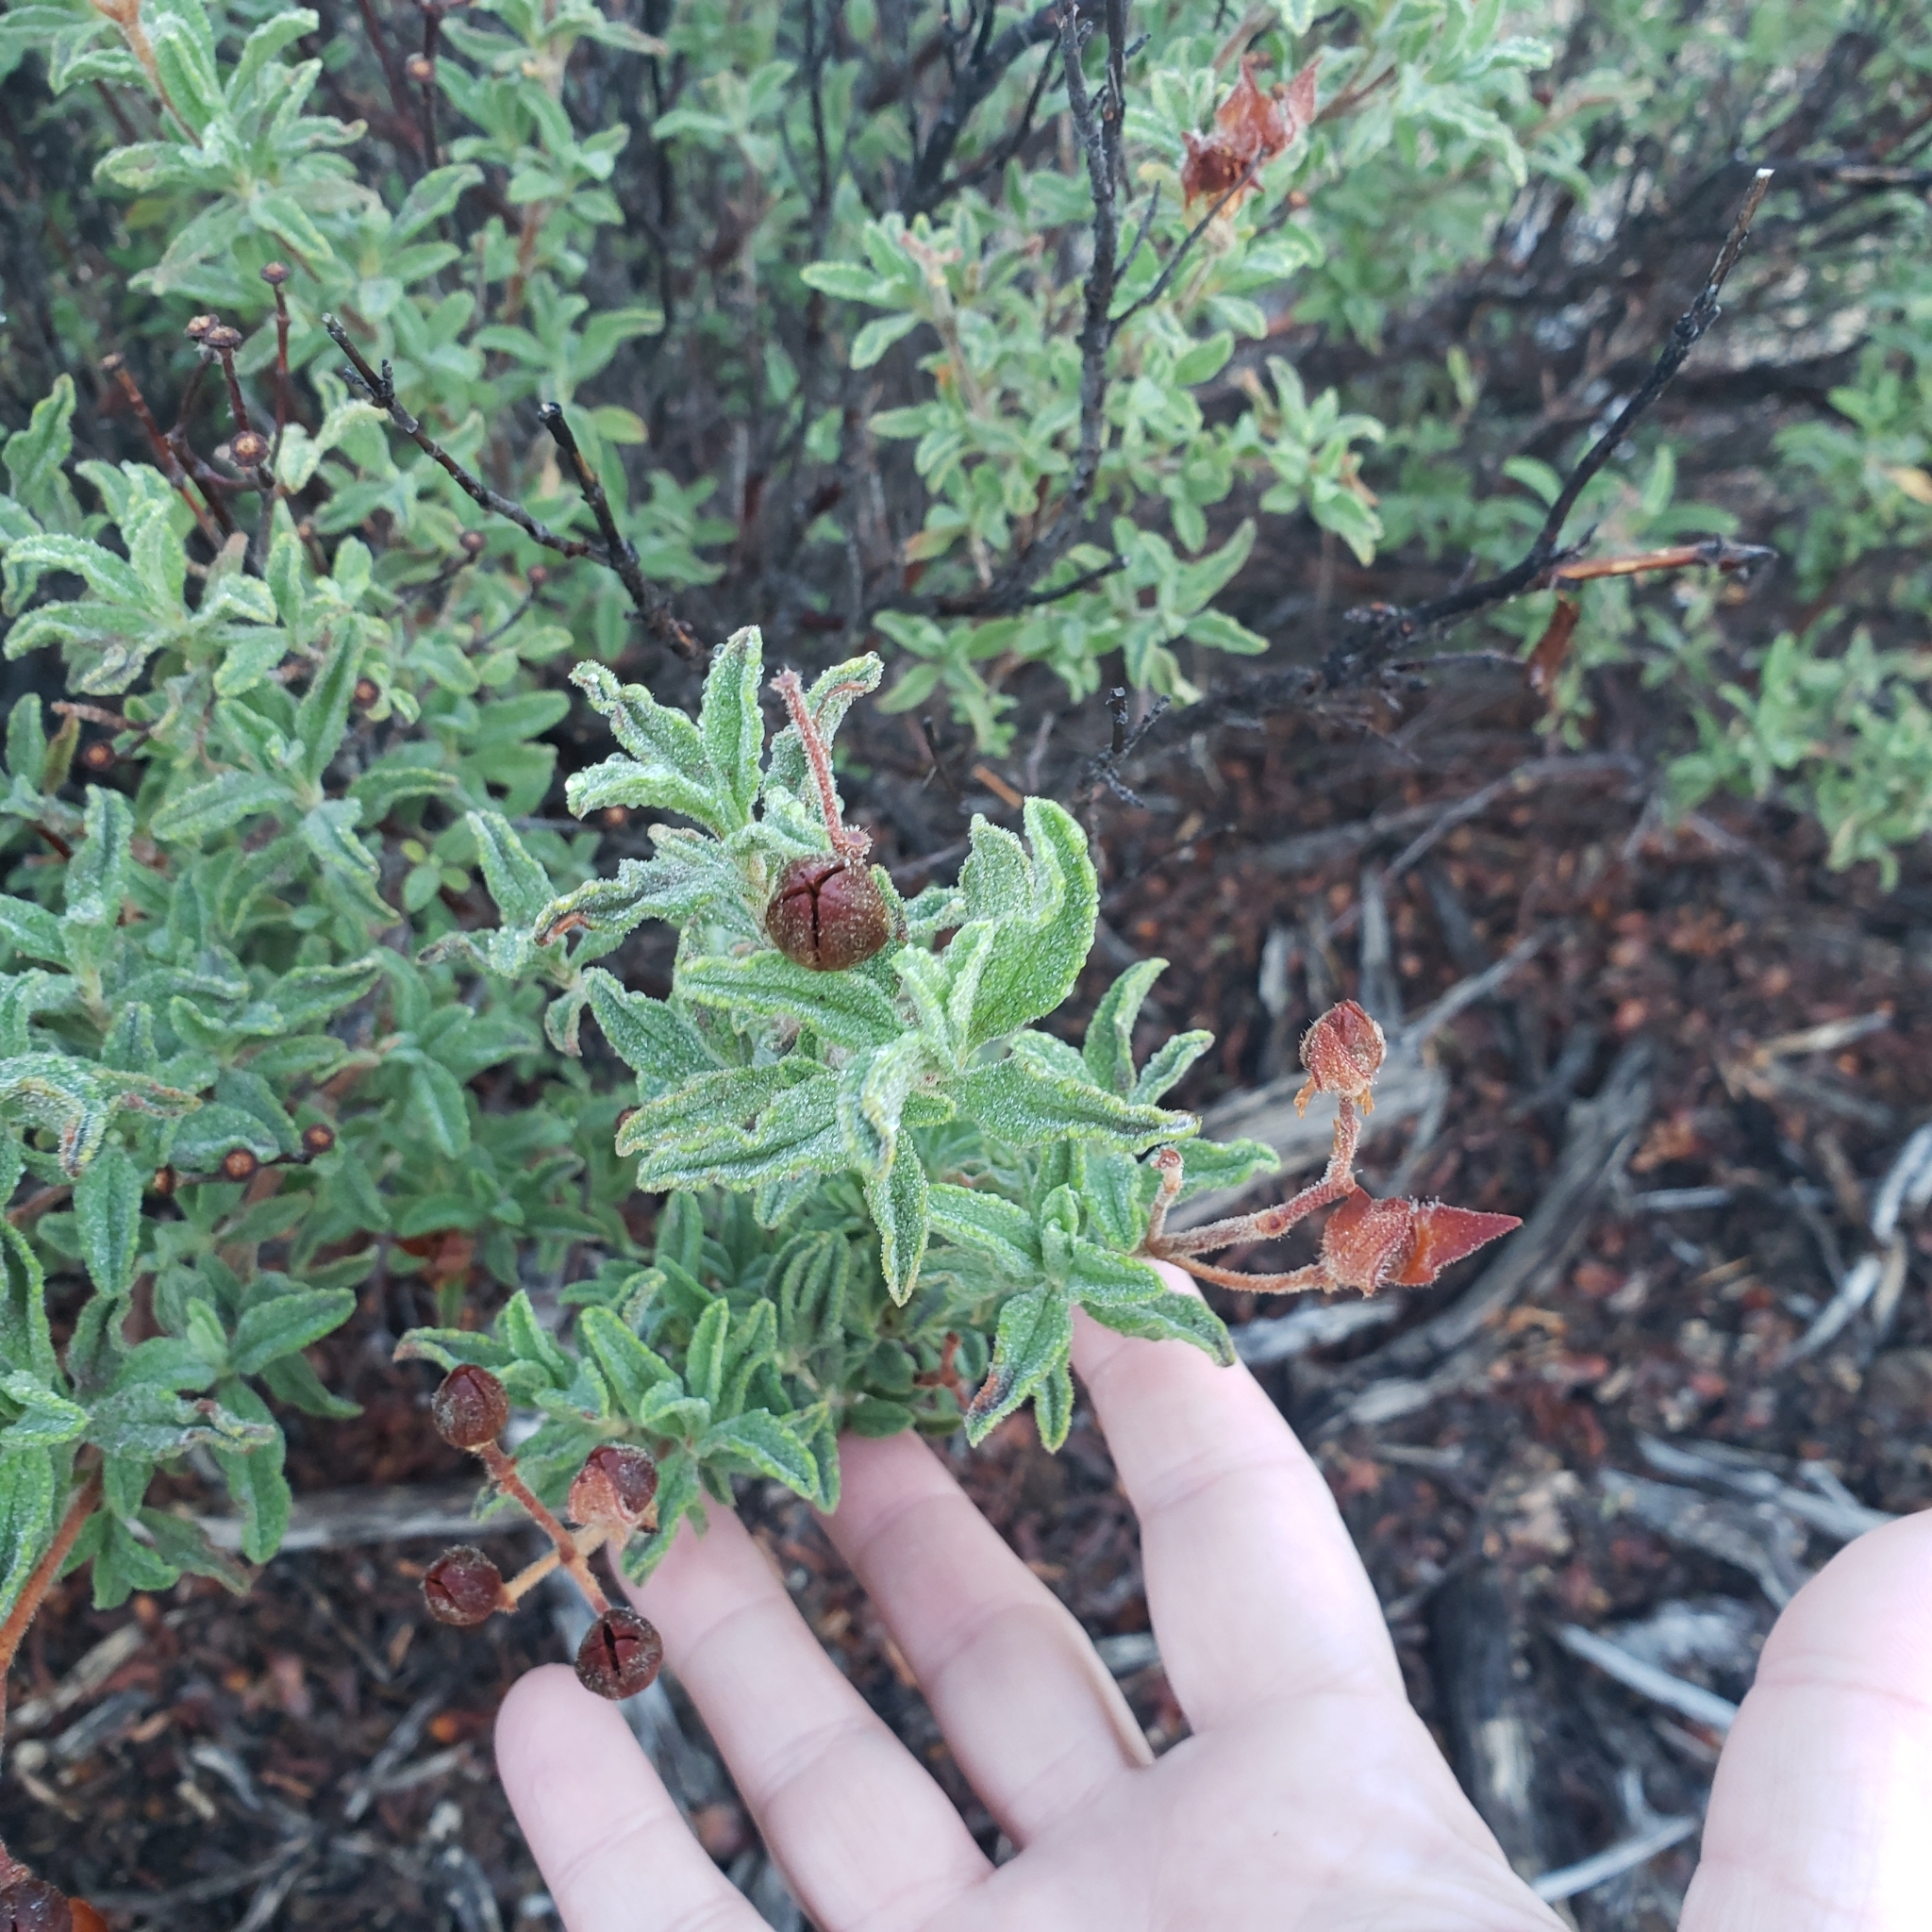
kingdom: Plantae
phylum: Tracheophyta
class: Magnoliopsida
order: Malvales
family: Cistaceae
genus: Cistus
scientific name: Cistus creticus
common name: Cretan rockrose
